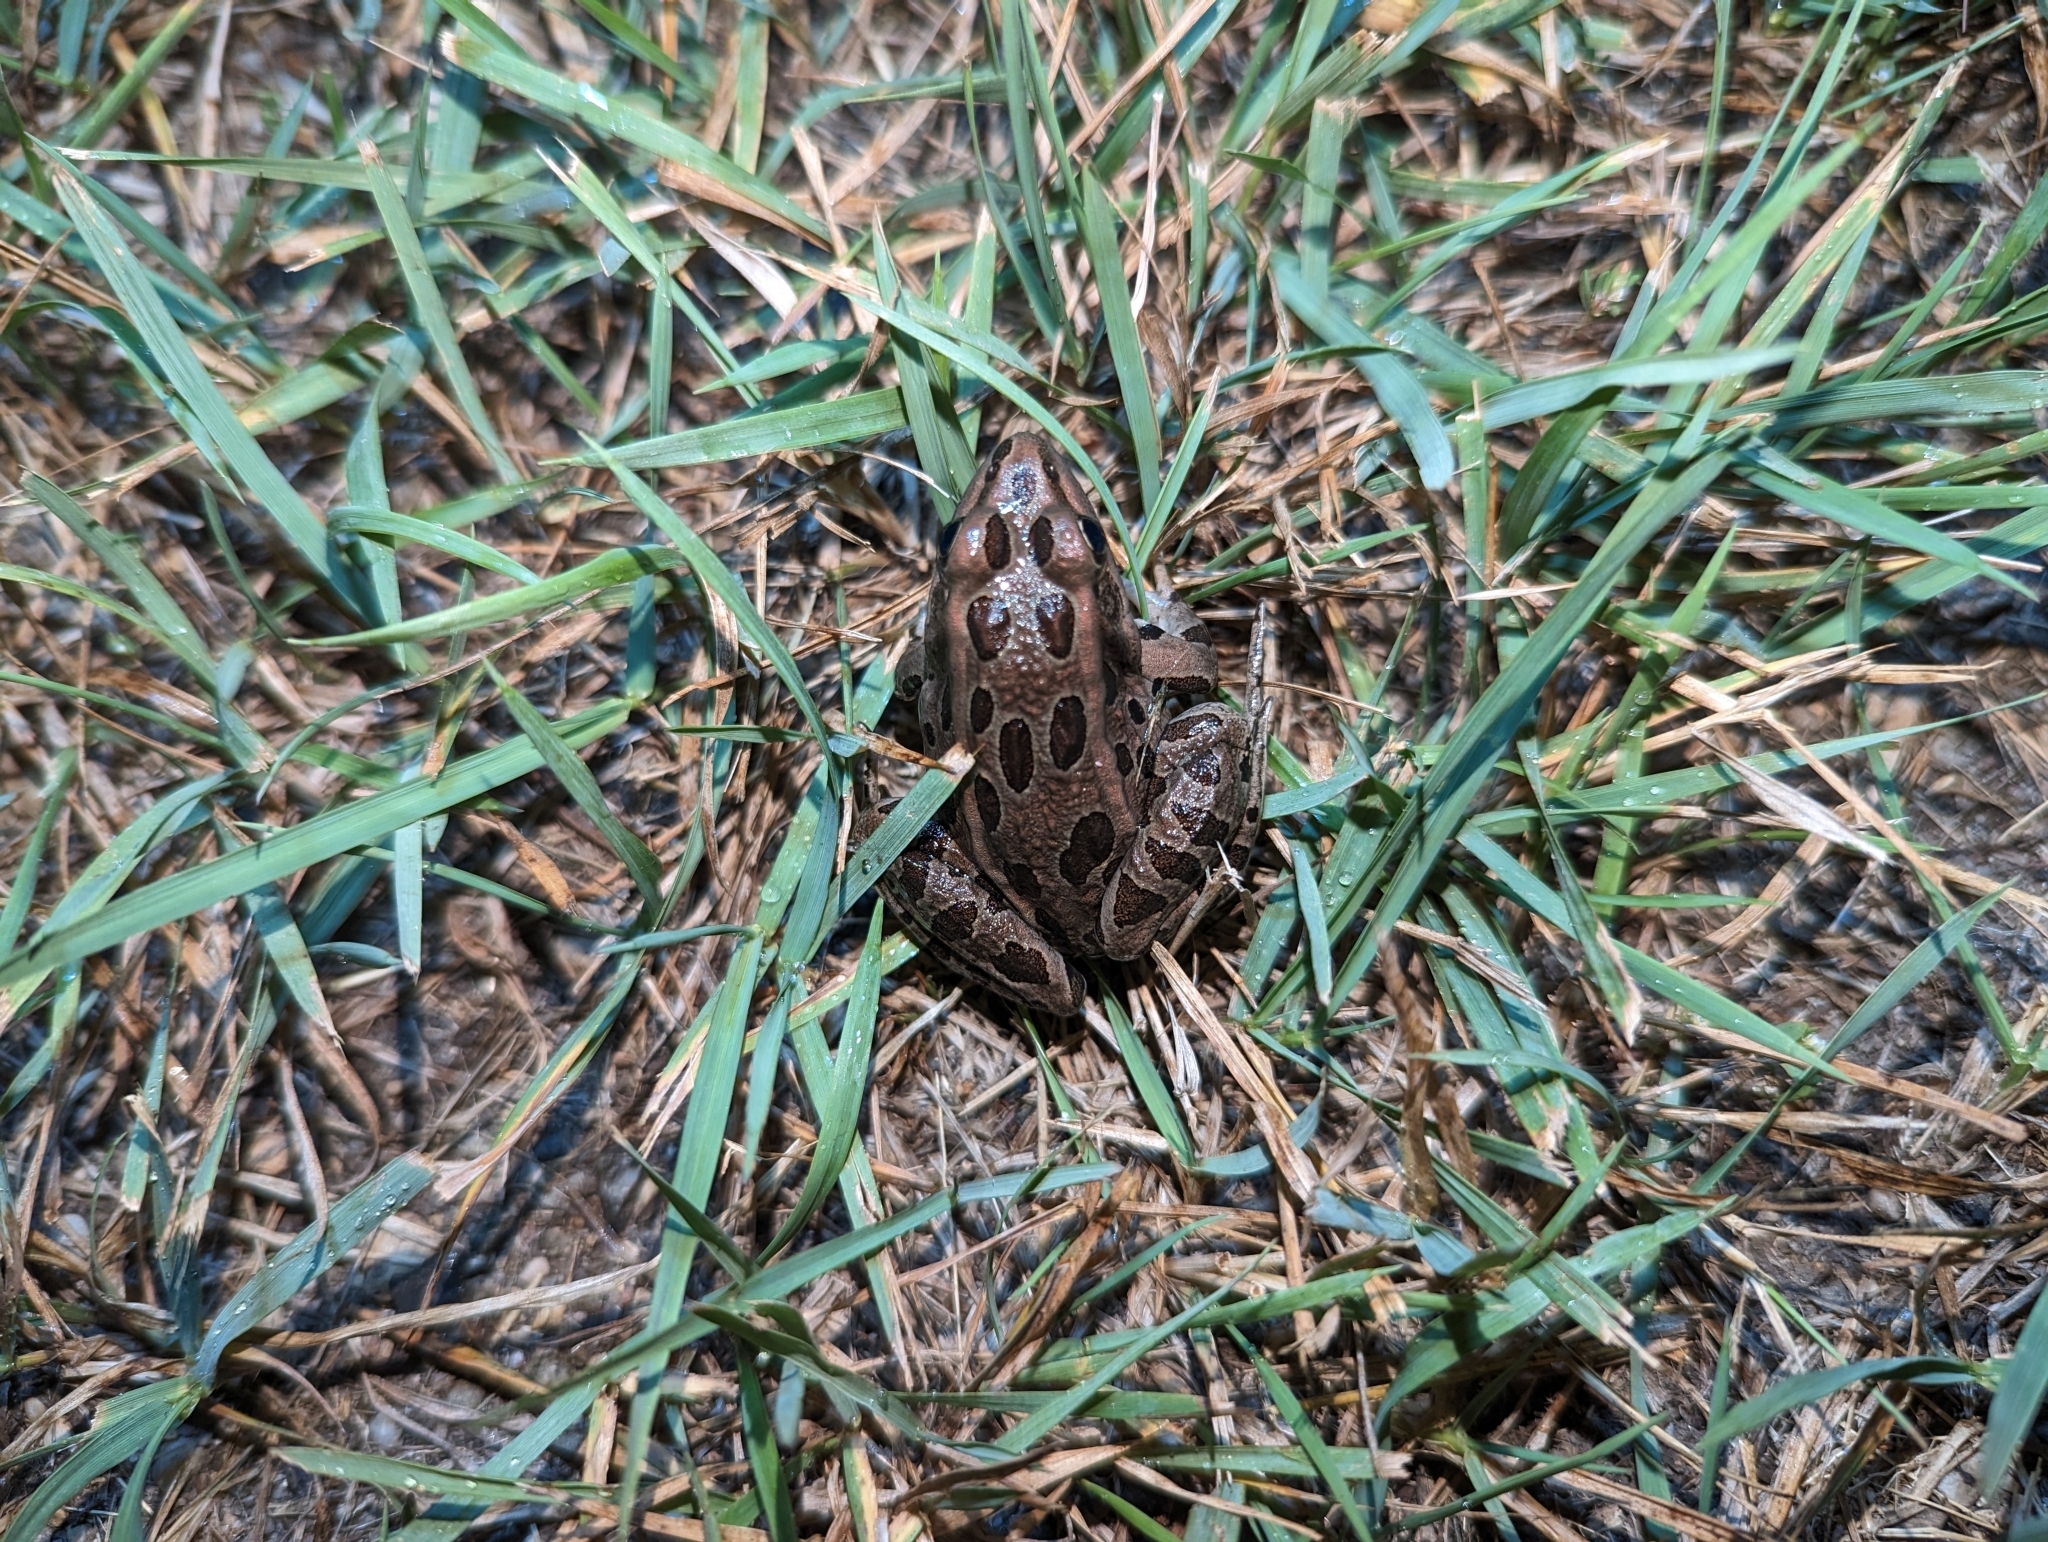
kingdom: Animalia
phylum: Chordata
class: Amphibia
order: Anura
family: Ranidae
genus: Lithobates
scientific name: Lithobates pipiens
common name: Northern leopard frog
